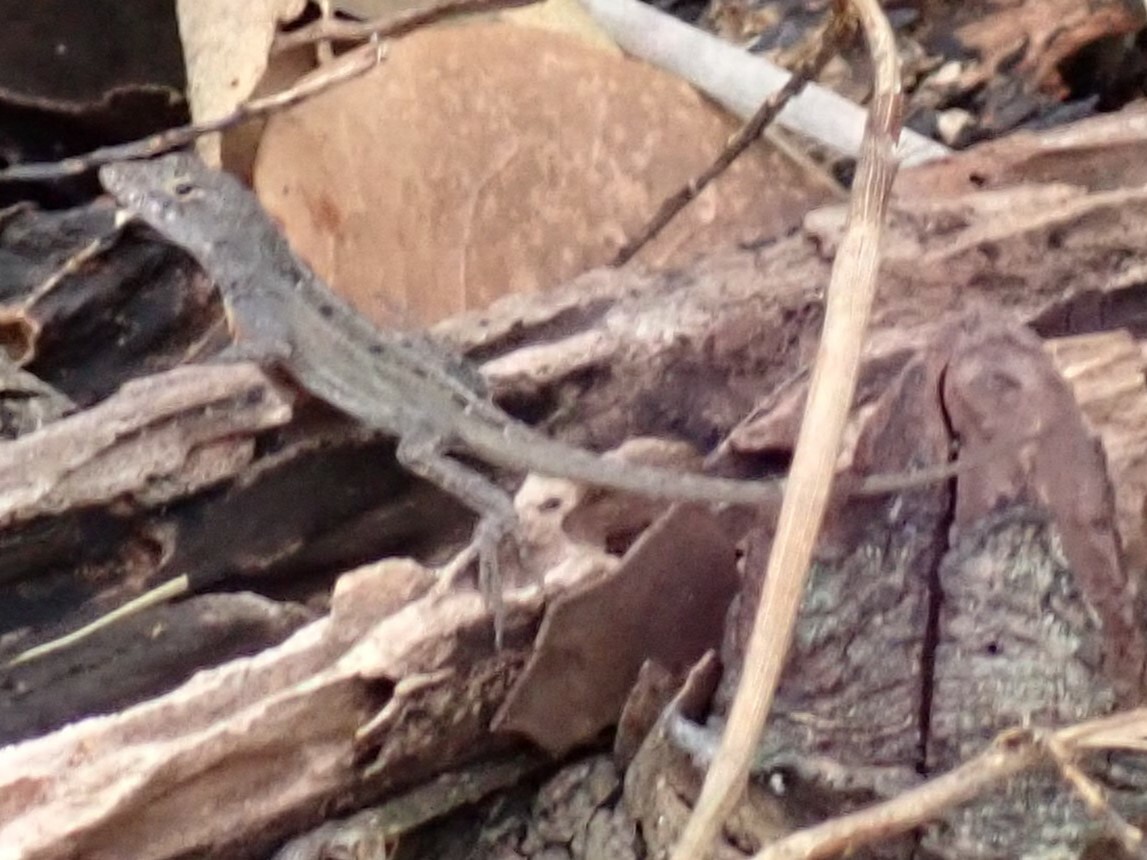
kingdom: Animalia
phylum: Chordata
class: Squamata
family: Dactyloidae
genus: Anolis
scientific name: Anolis sagrei
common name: Brown anole
